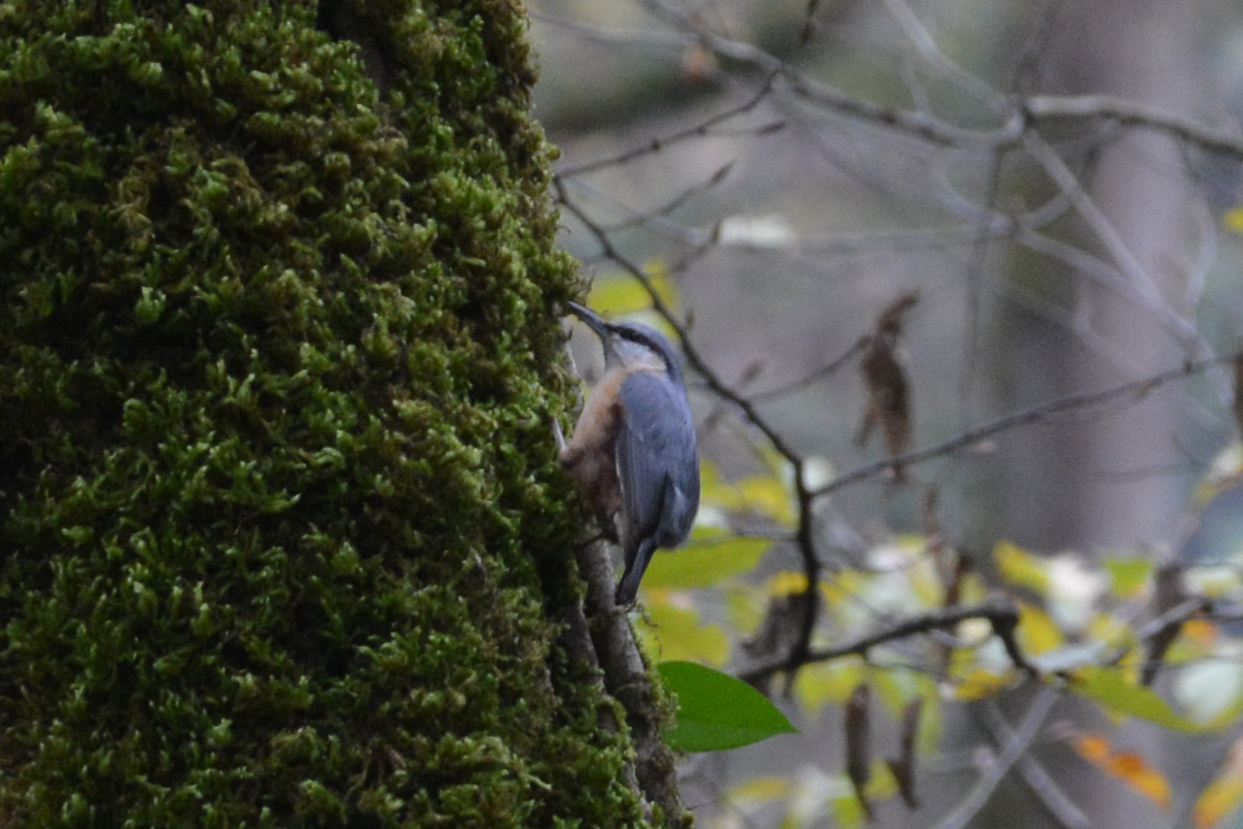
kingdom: Animalia
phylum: Chordata
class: Aves
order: Passeriformes
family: Sittidae
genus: Sitta
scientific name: Sitta europaea
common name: Eurasian nuthatch
